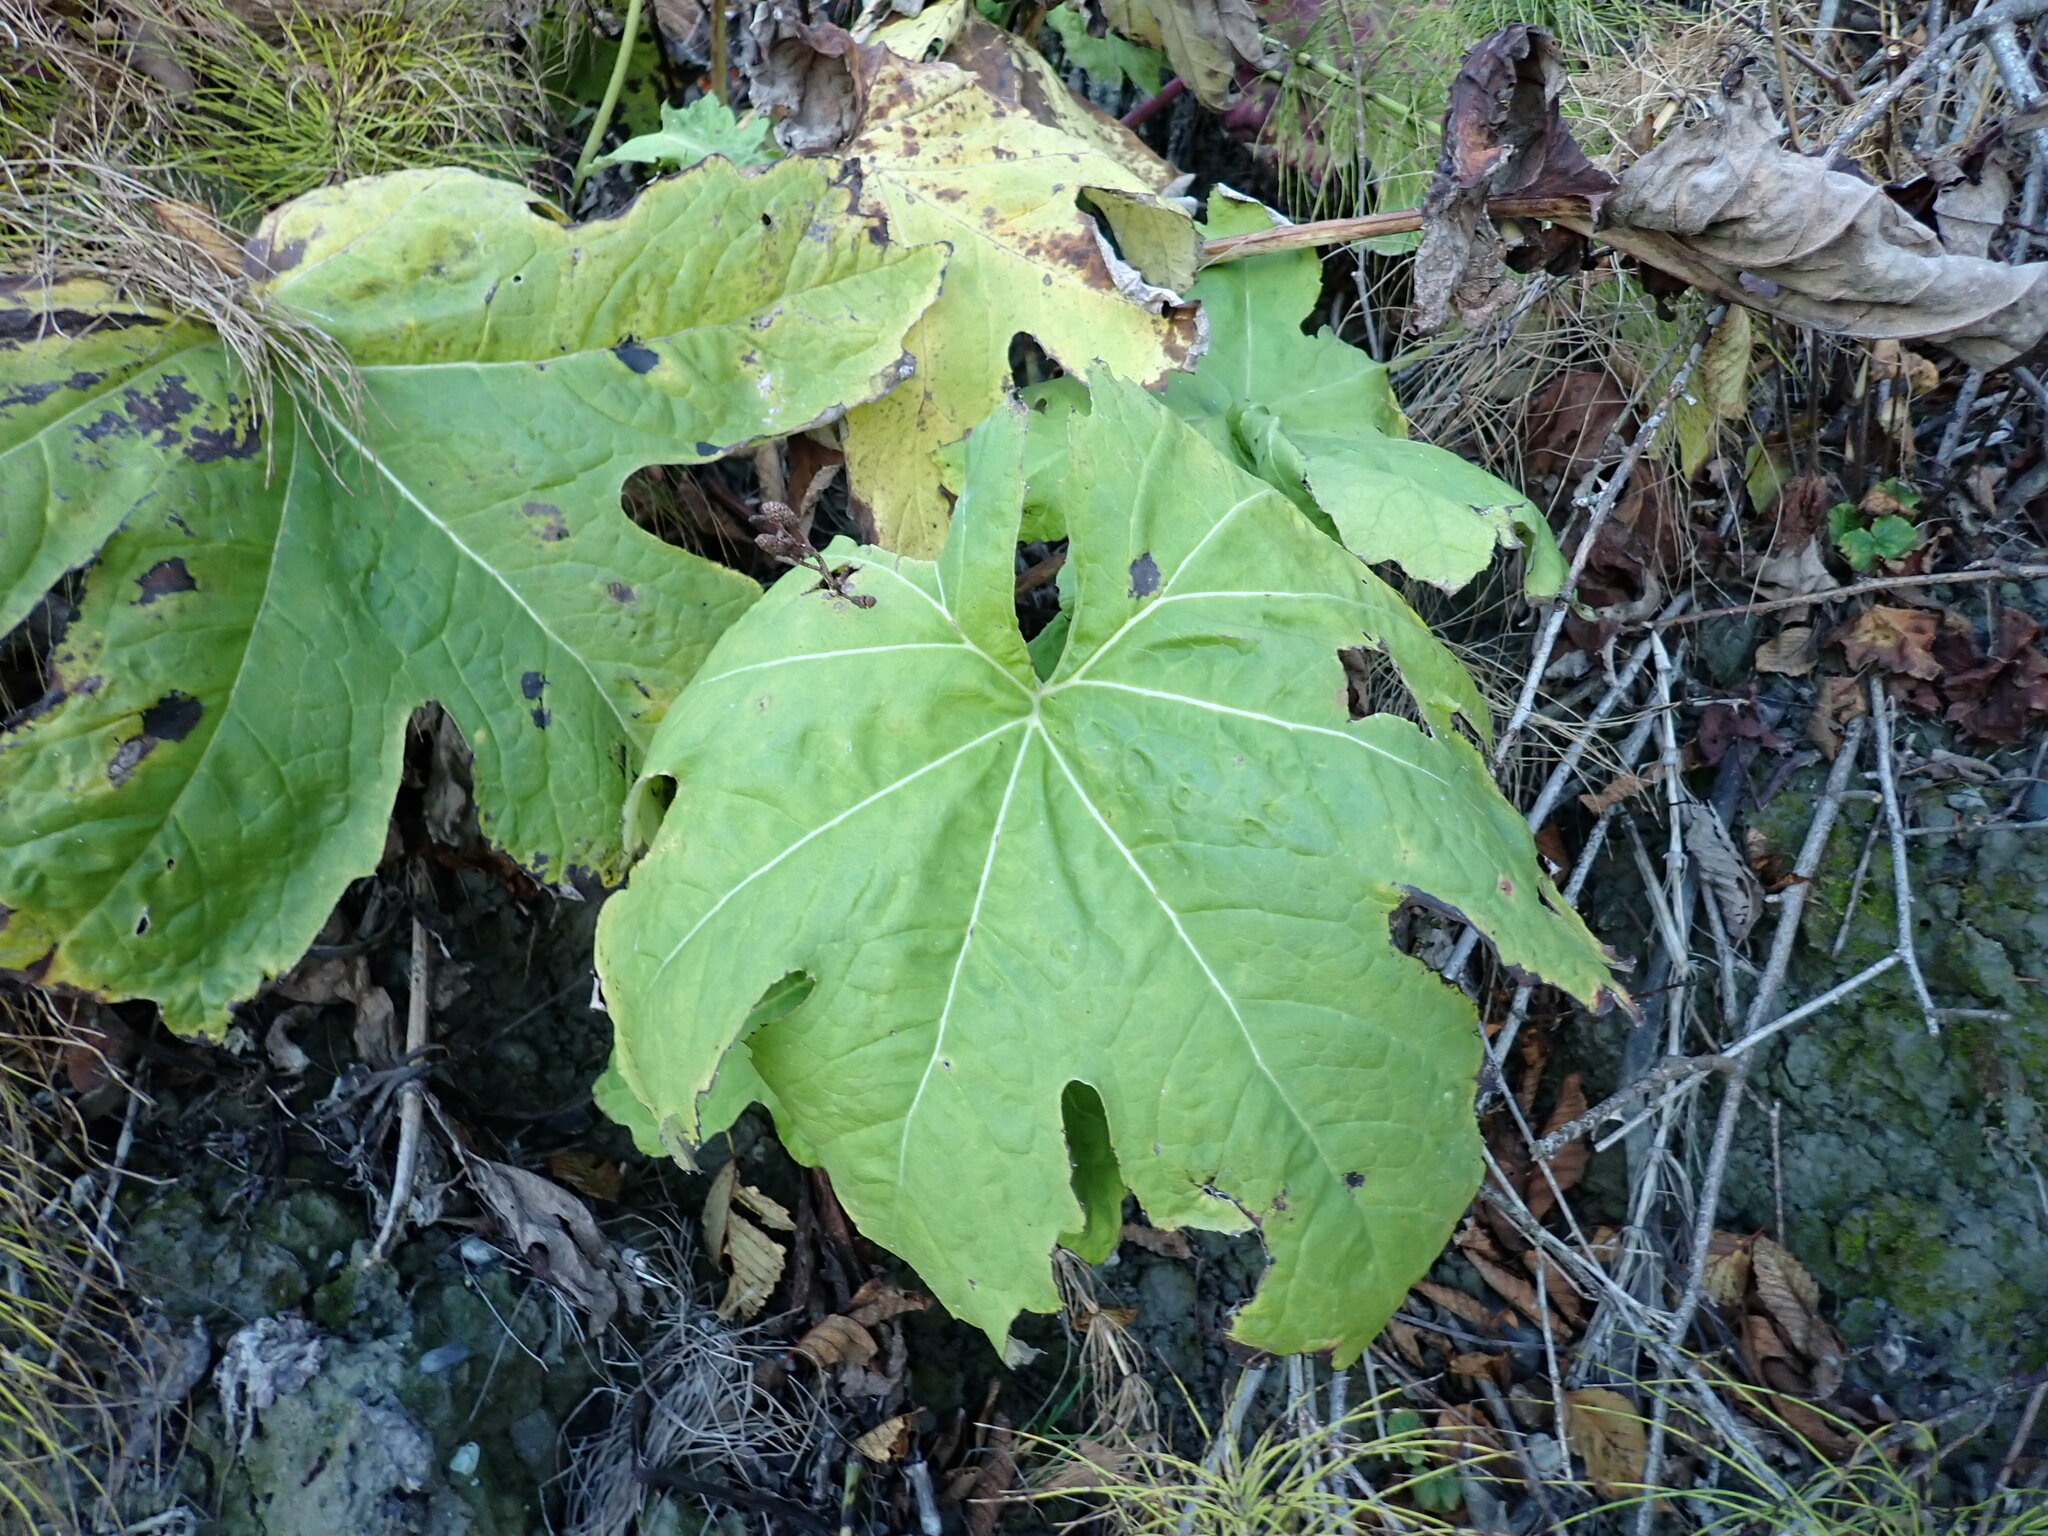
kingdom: Plantae
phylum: Tracheophyta
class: Magnoliopsida
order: Asterales
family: Asteraceae
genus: Petasites
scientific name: Petasites frigidus
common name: Arctic butterbur
